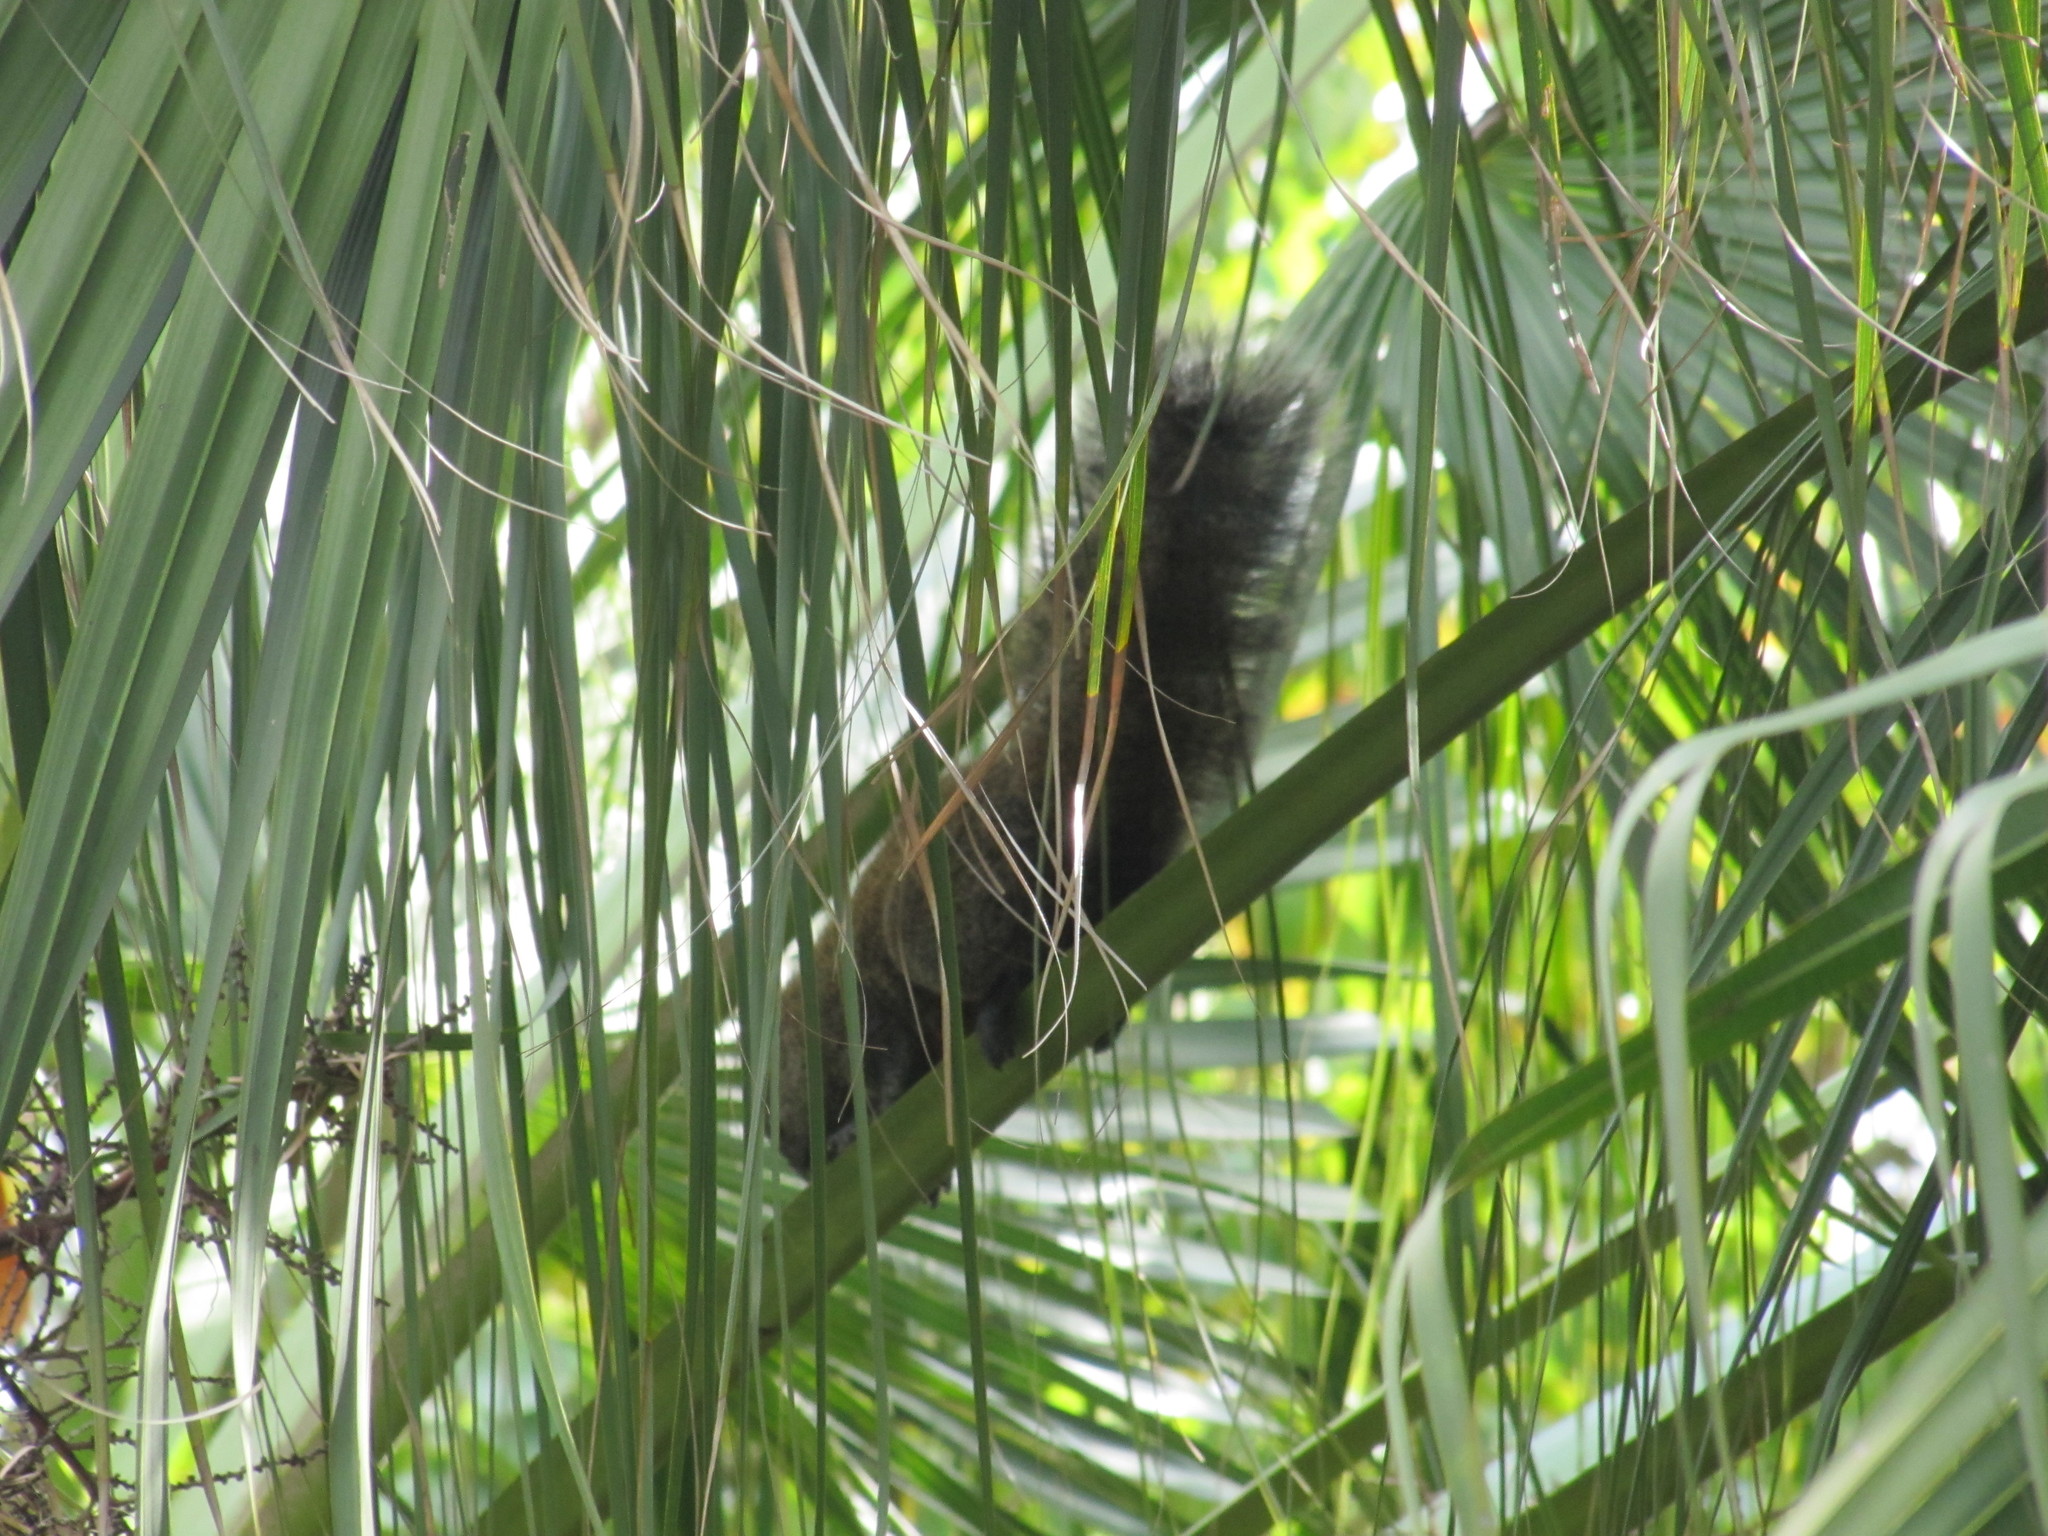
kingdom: Animalia
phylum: Chordata
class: Mammalia
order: Rodentia
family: Sciuridae
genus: Callosciurus
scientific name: Callosciurus erythraeus
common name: Pallas's squirrel
